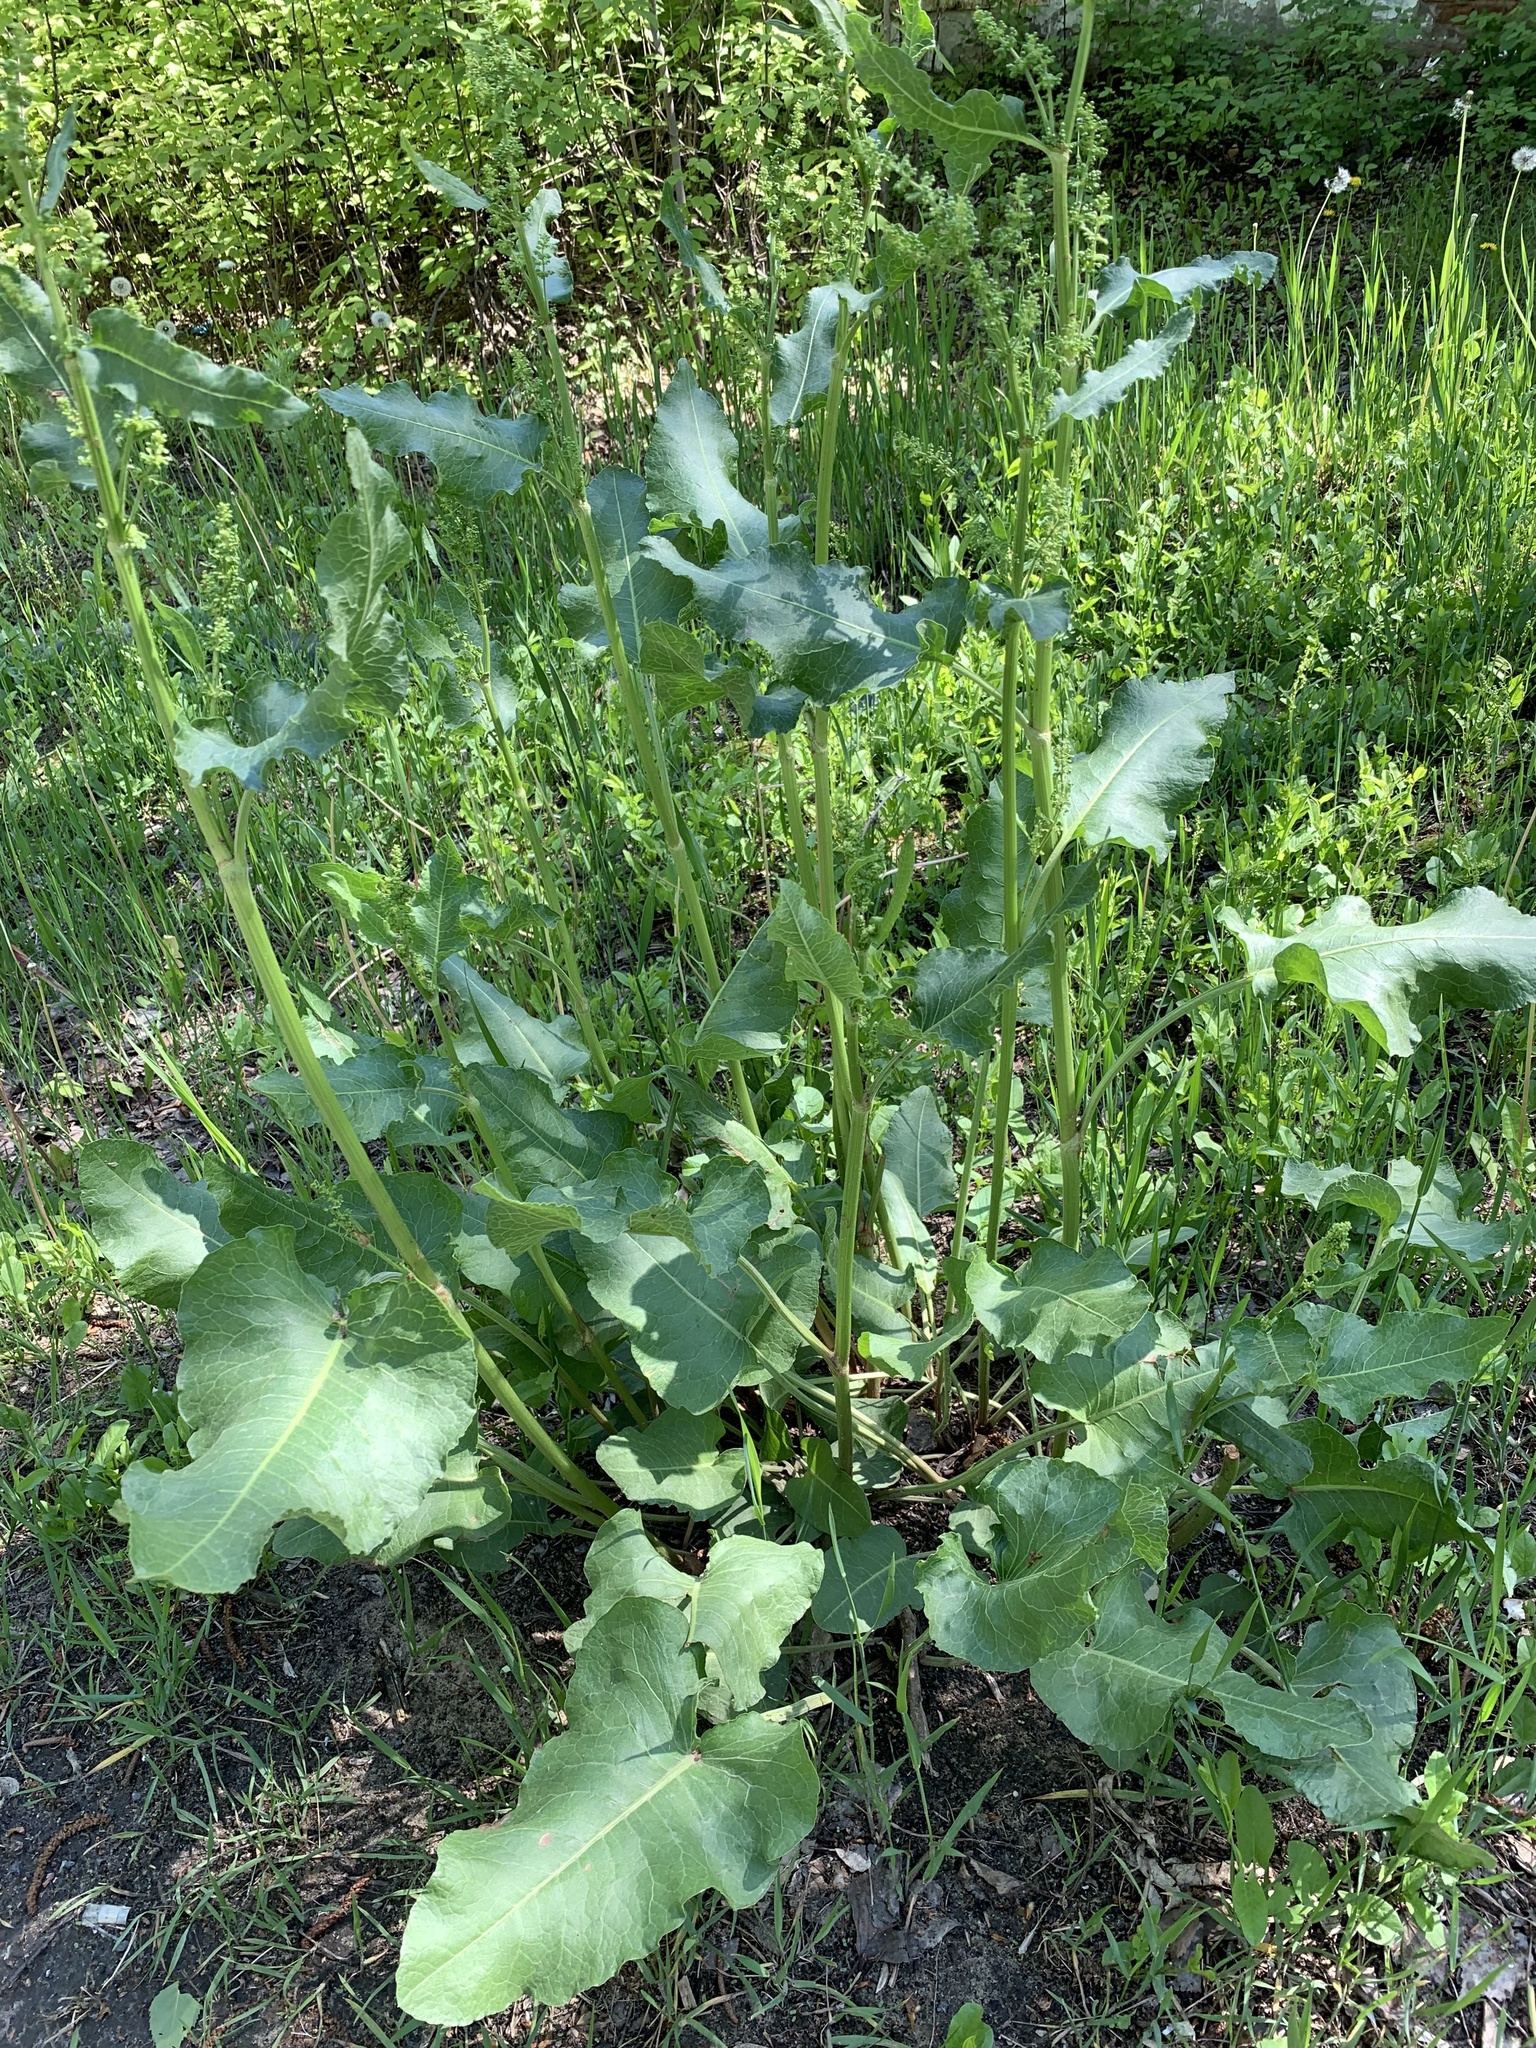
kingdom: Plantae
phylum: Tracheophyta
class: Magnoliopsida
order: Caryophyllales
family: Polygonaceae
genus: Rumex
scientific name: Rumex confertus
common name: Russian dock
